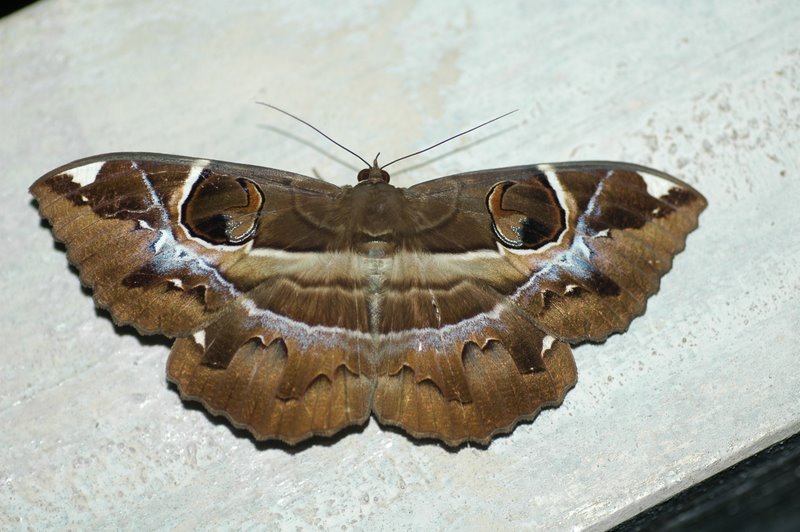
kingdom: Animalia
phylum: Arthropoda
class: Insecta
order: Lepidoptera
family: Erebidae
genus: Erebus
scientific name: Erebus ephesperis
